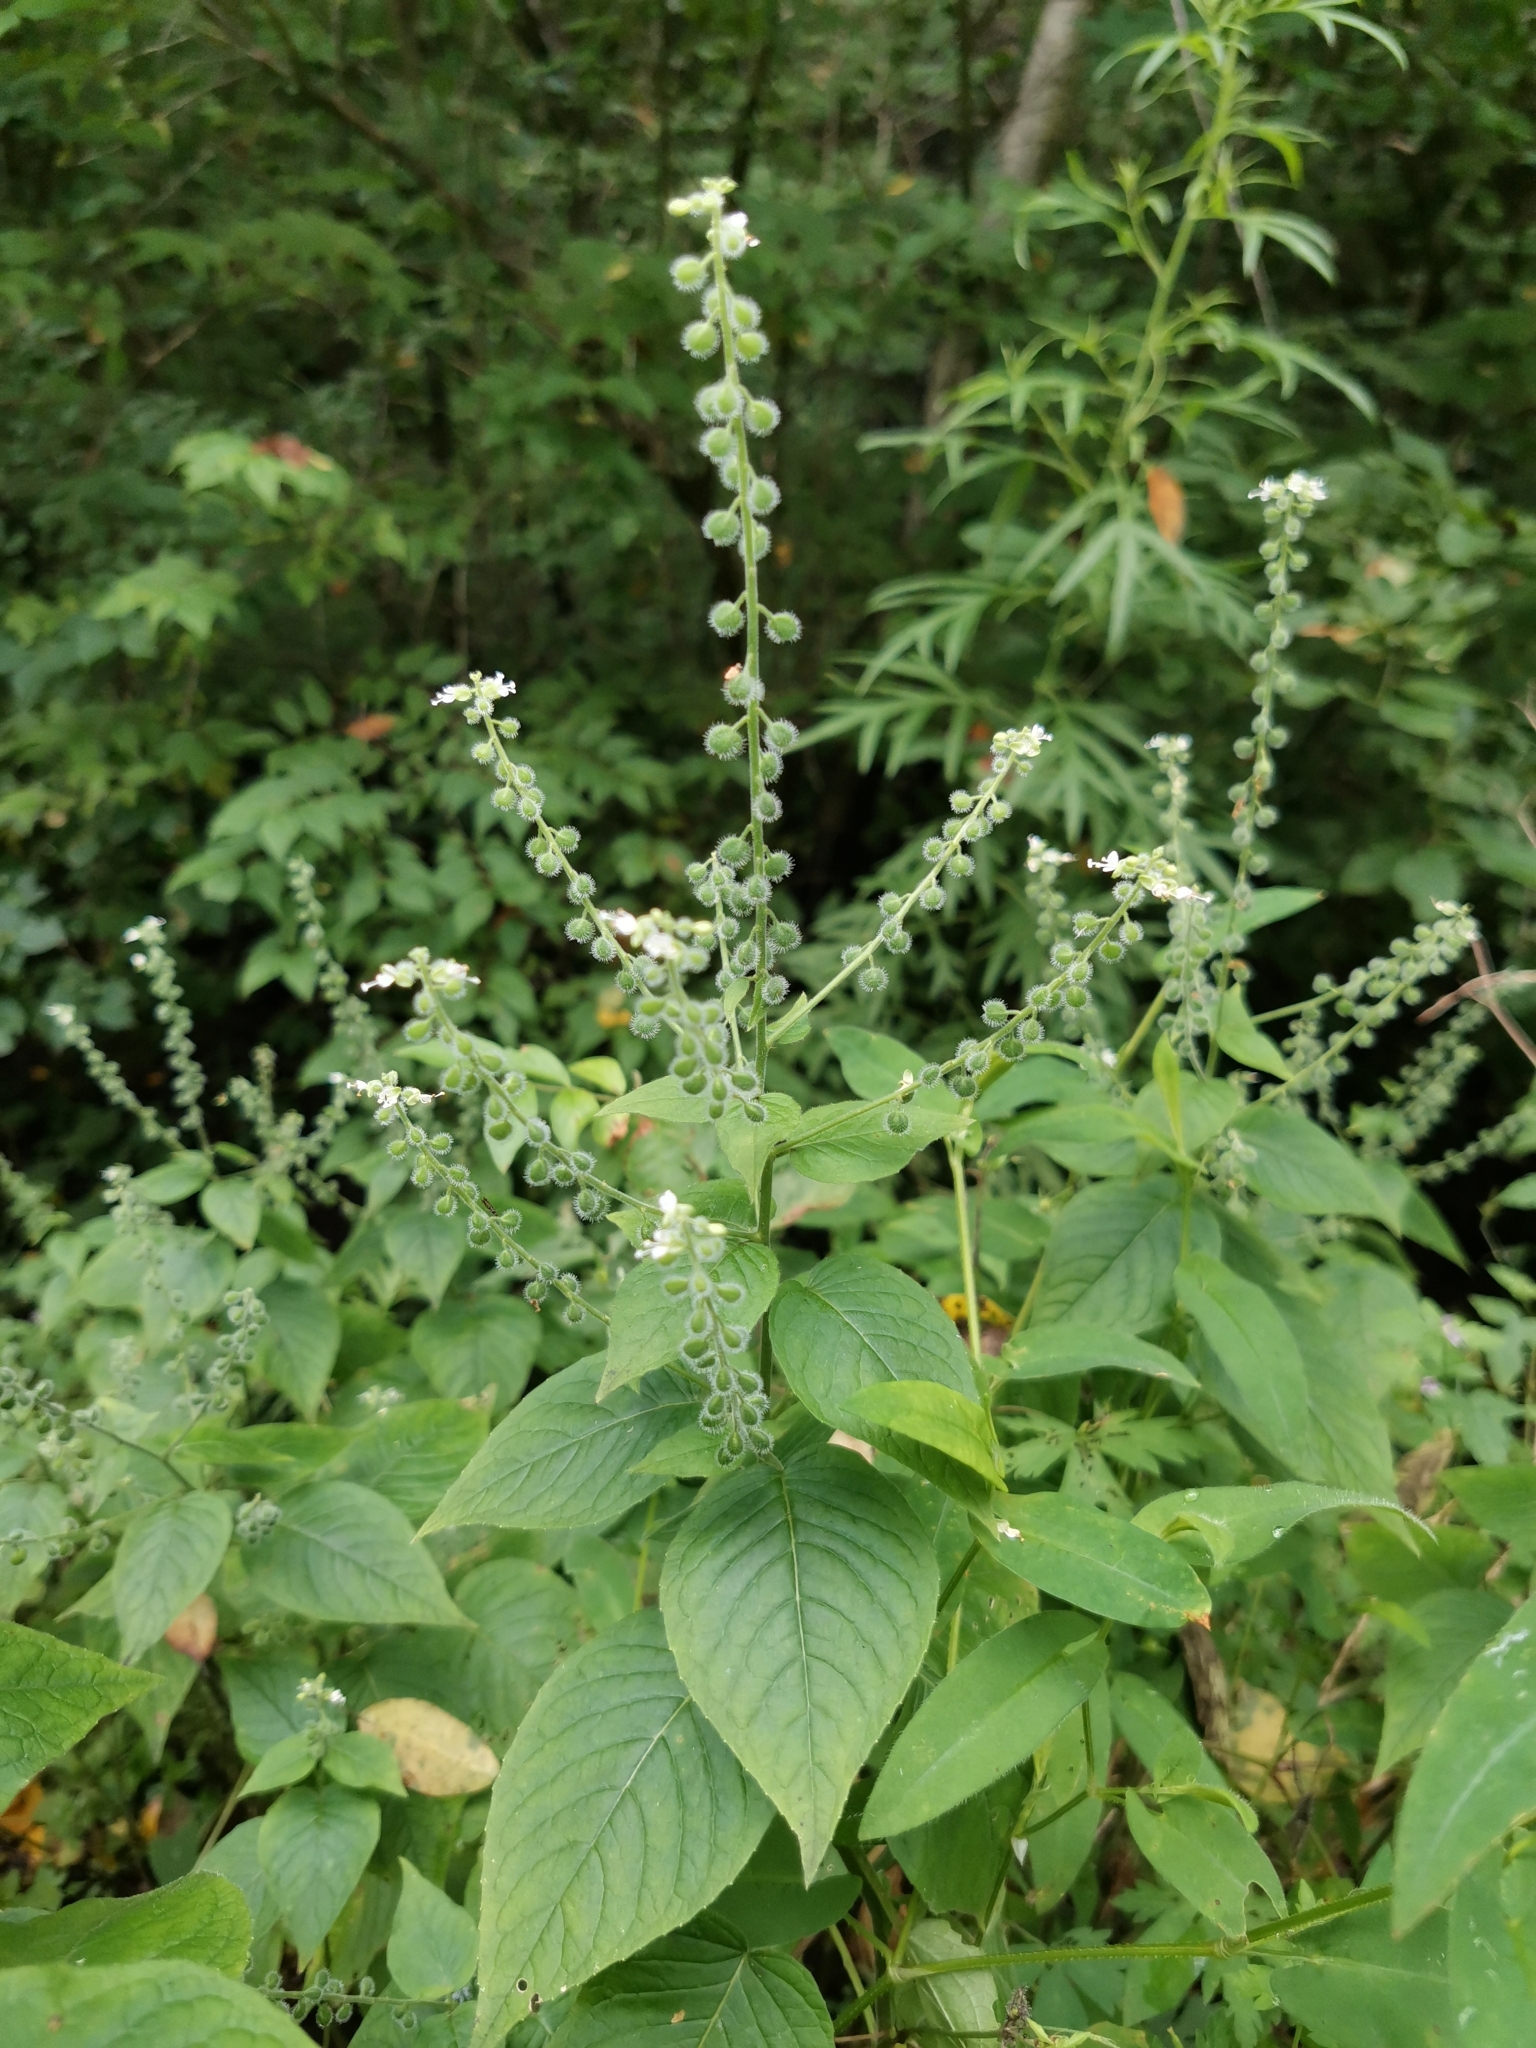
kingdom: Plantae
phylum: Tracheophyta
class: Magnoliopsida
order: Myrtales
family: Onagraceae
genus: Circaea
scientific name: Circaea cordata
